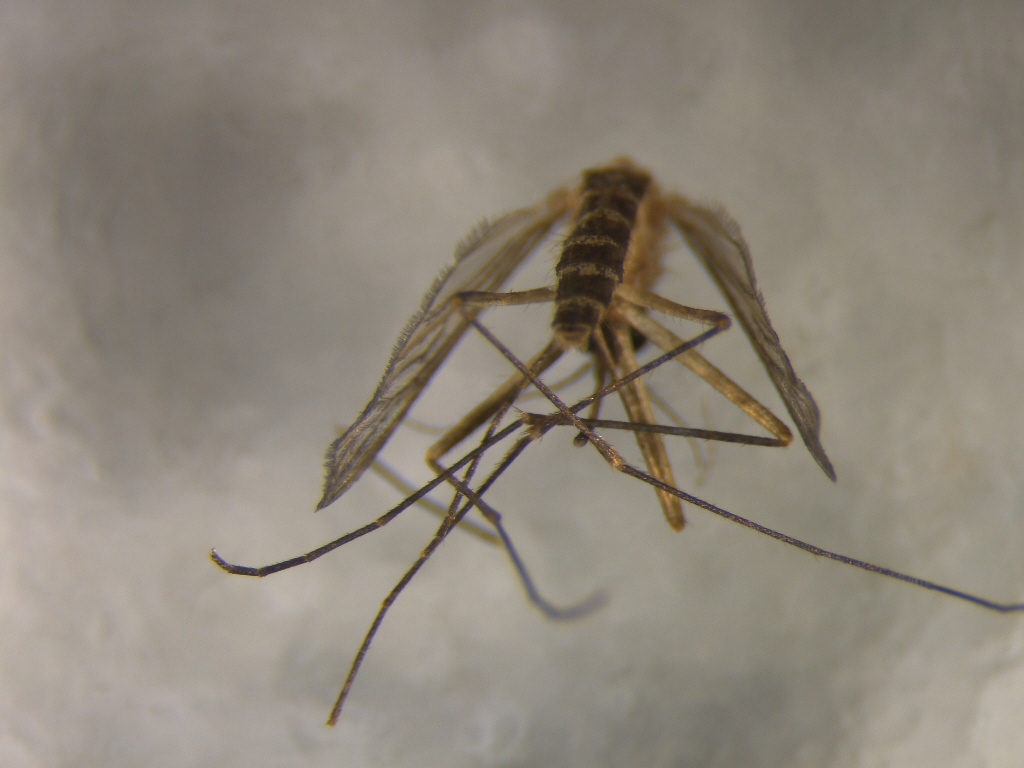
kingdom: Animalia
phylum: Arthropoda
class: Insecta
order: Diptera
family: Culicidae
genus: Culex
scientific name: Culex quinquefasciatus
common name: Southern house mosquito
